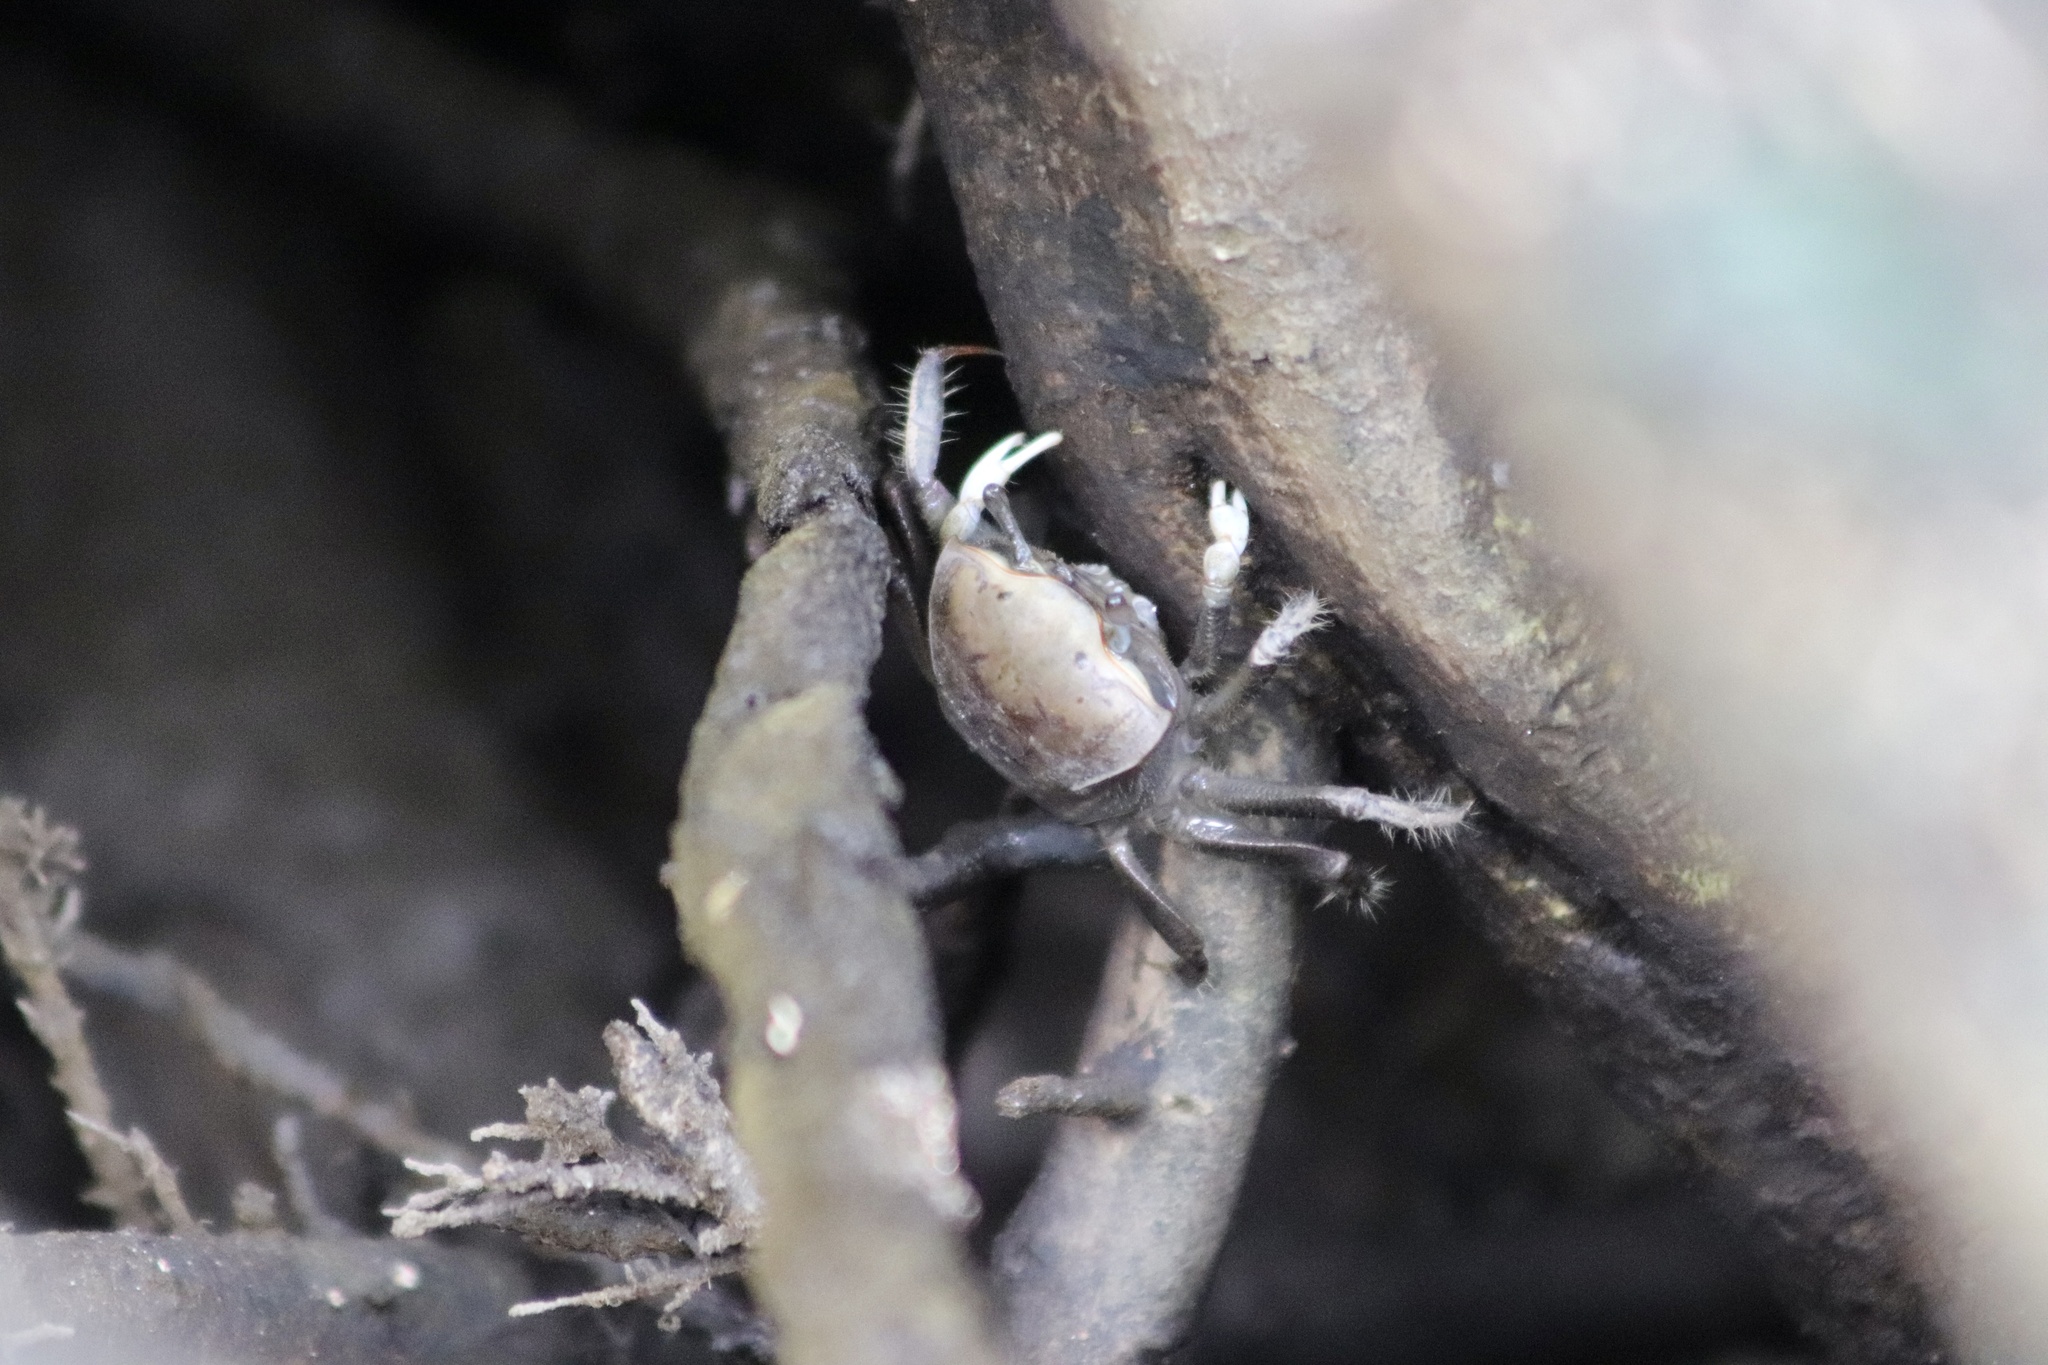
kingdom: Animalia
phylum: Arthropoda
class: Malacostraca
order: Decapoda
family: Ocypodidae
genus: Minuca
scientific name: Minuca minax
